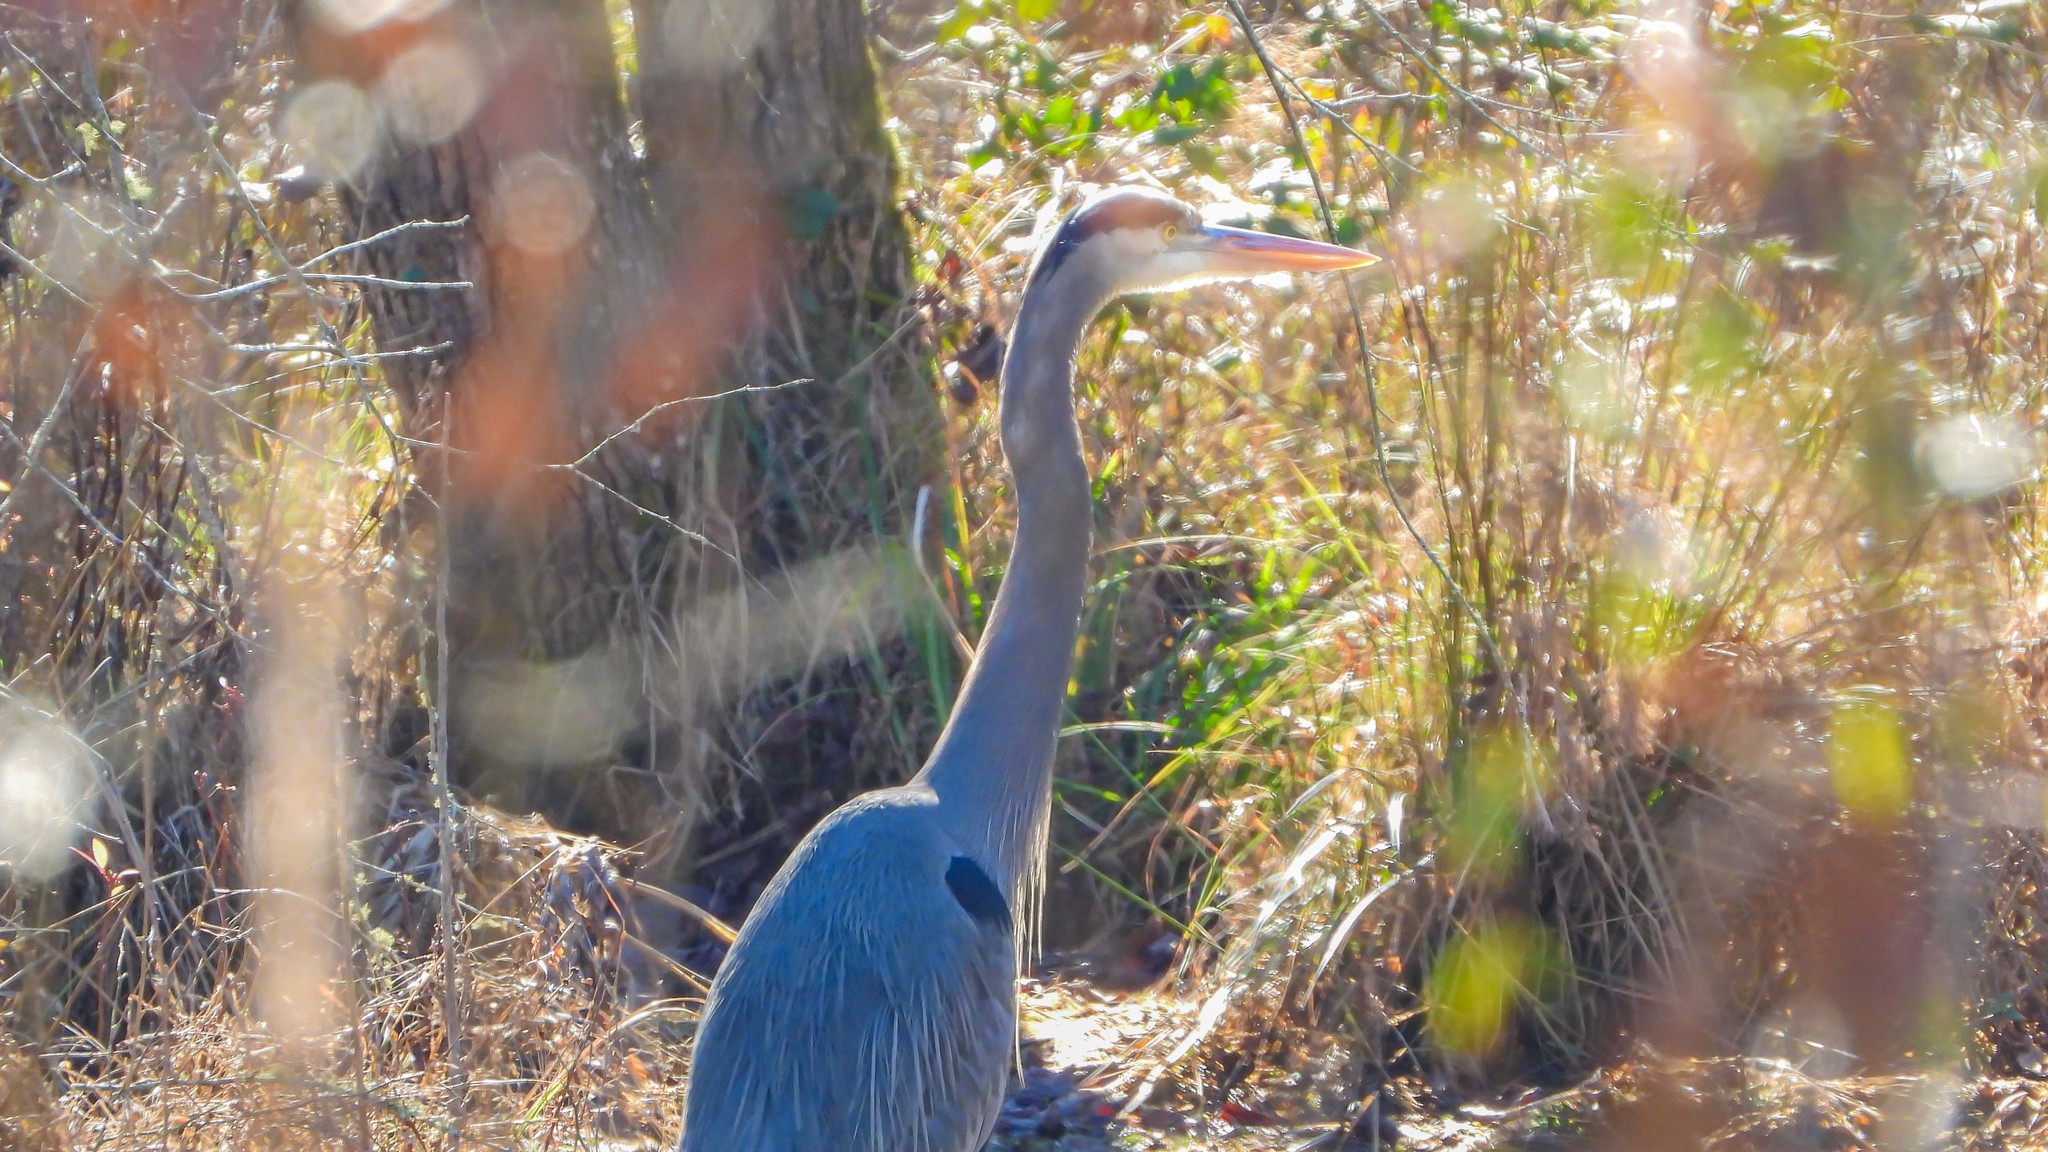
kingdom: Animalia
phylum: Chordata
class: Aves
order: Pelecaniformes
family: Ardeidae
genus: Ardea
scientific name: Ardea herodias
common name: Great blue heron
